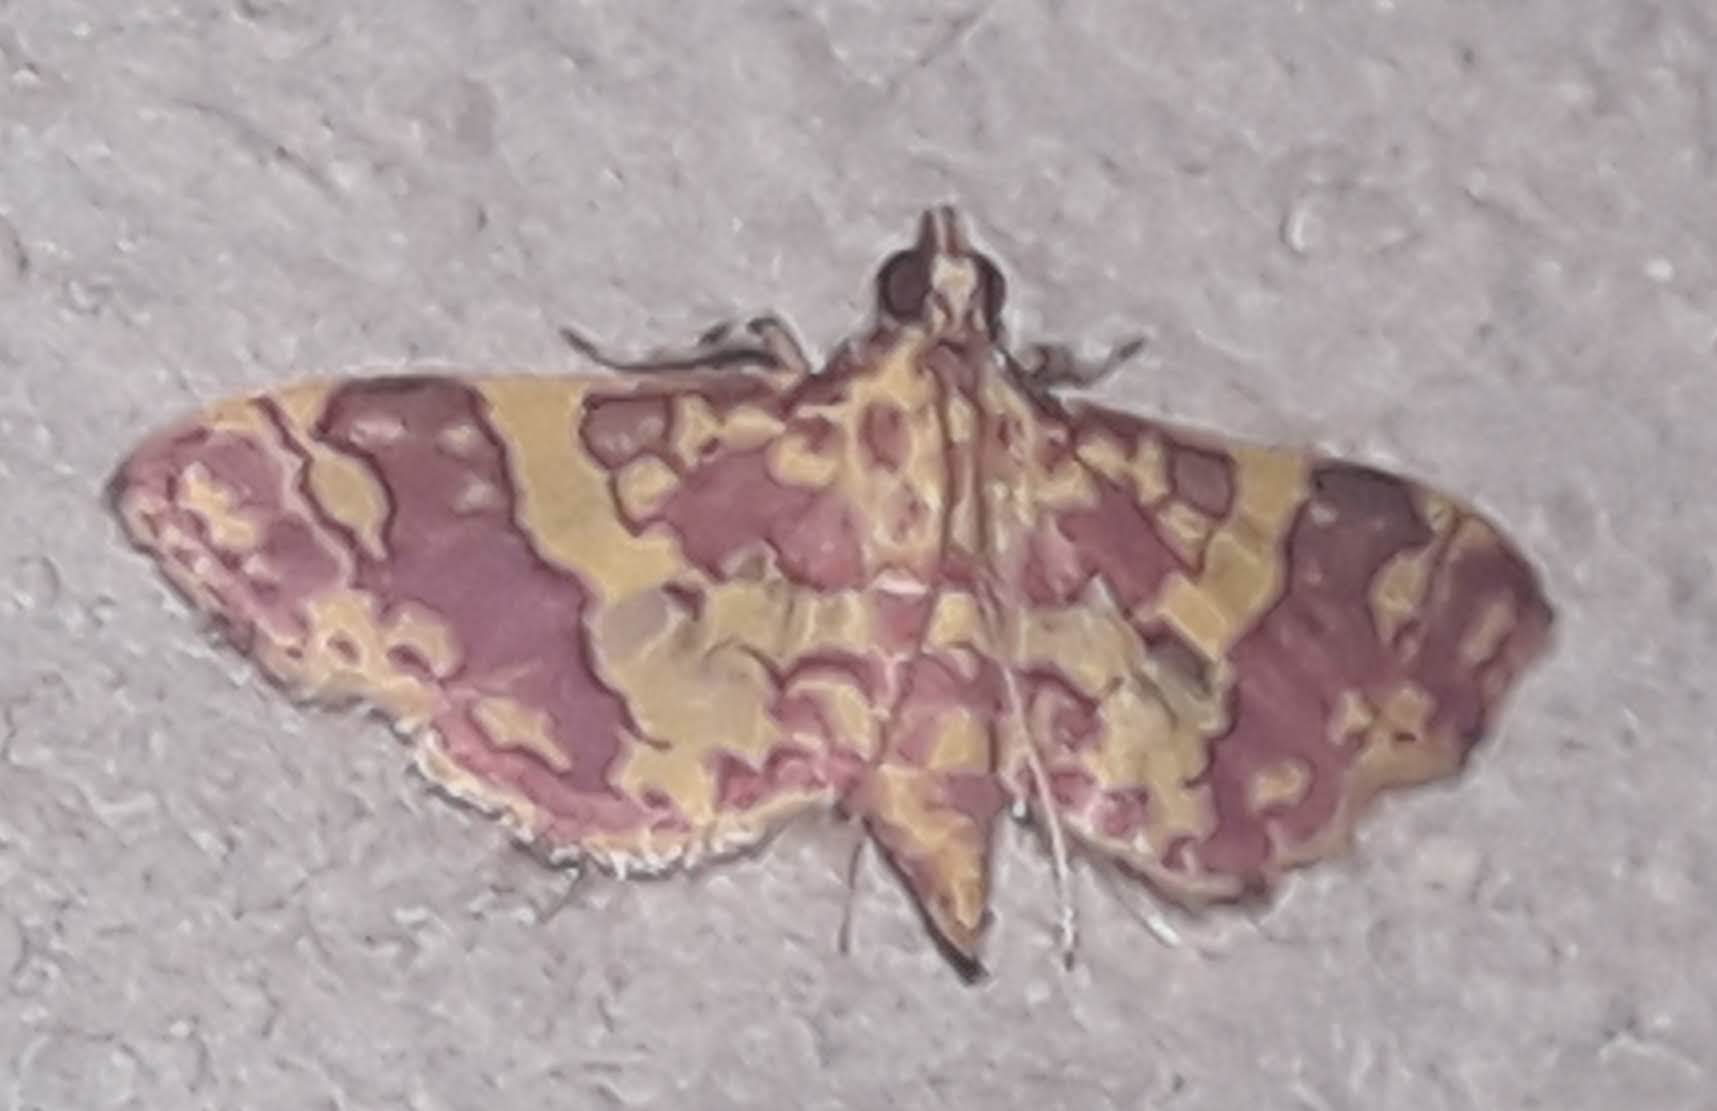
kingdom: Animalia
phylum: Arthropoda
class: Insecta
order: Lepidoptera
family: Crambidae
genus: Trithyris
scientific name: Trithyris Prenesta rubrocinctalis
